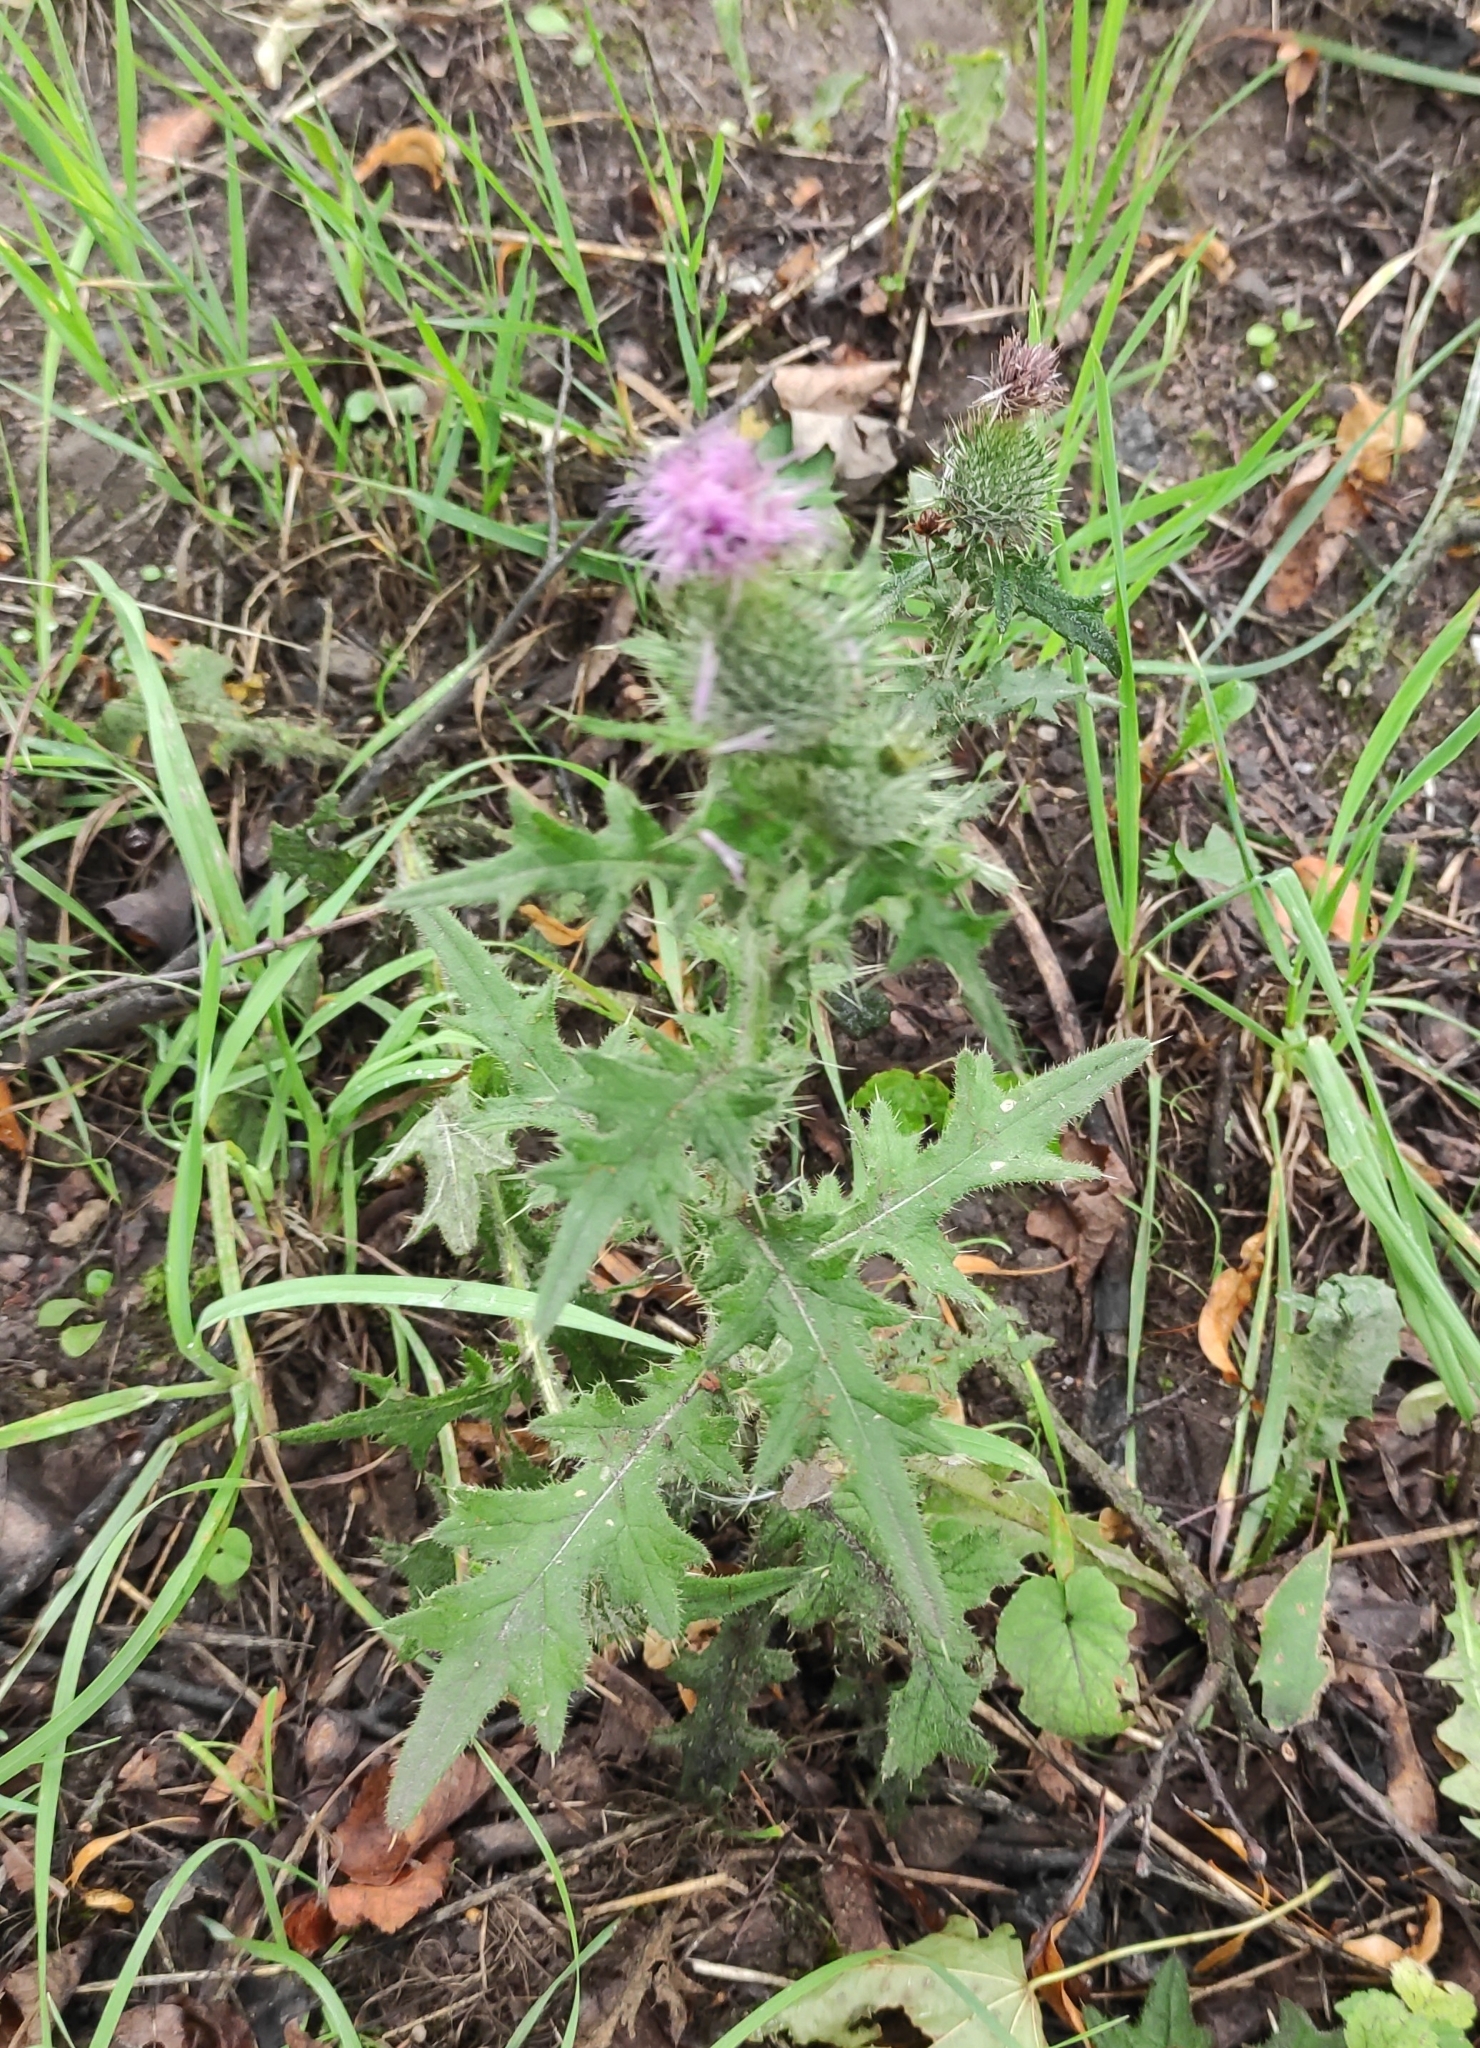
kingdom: Plantae
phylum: Tracheophyta
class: Magnoliopsida
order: Asterales
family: Asteraceae
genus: Cirsium
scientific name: Cirsium vulgare
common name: Bull thistle
